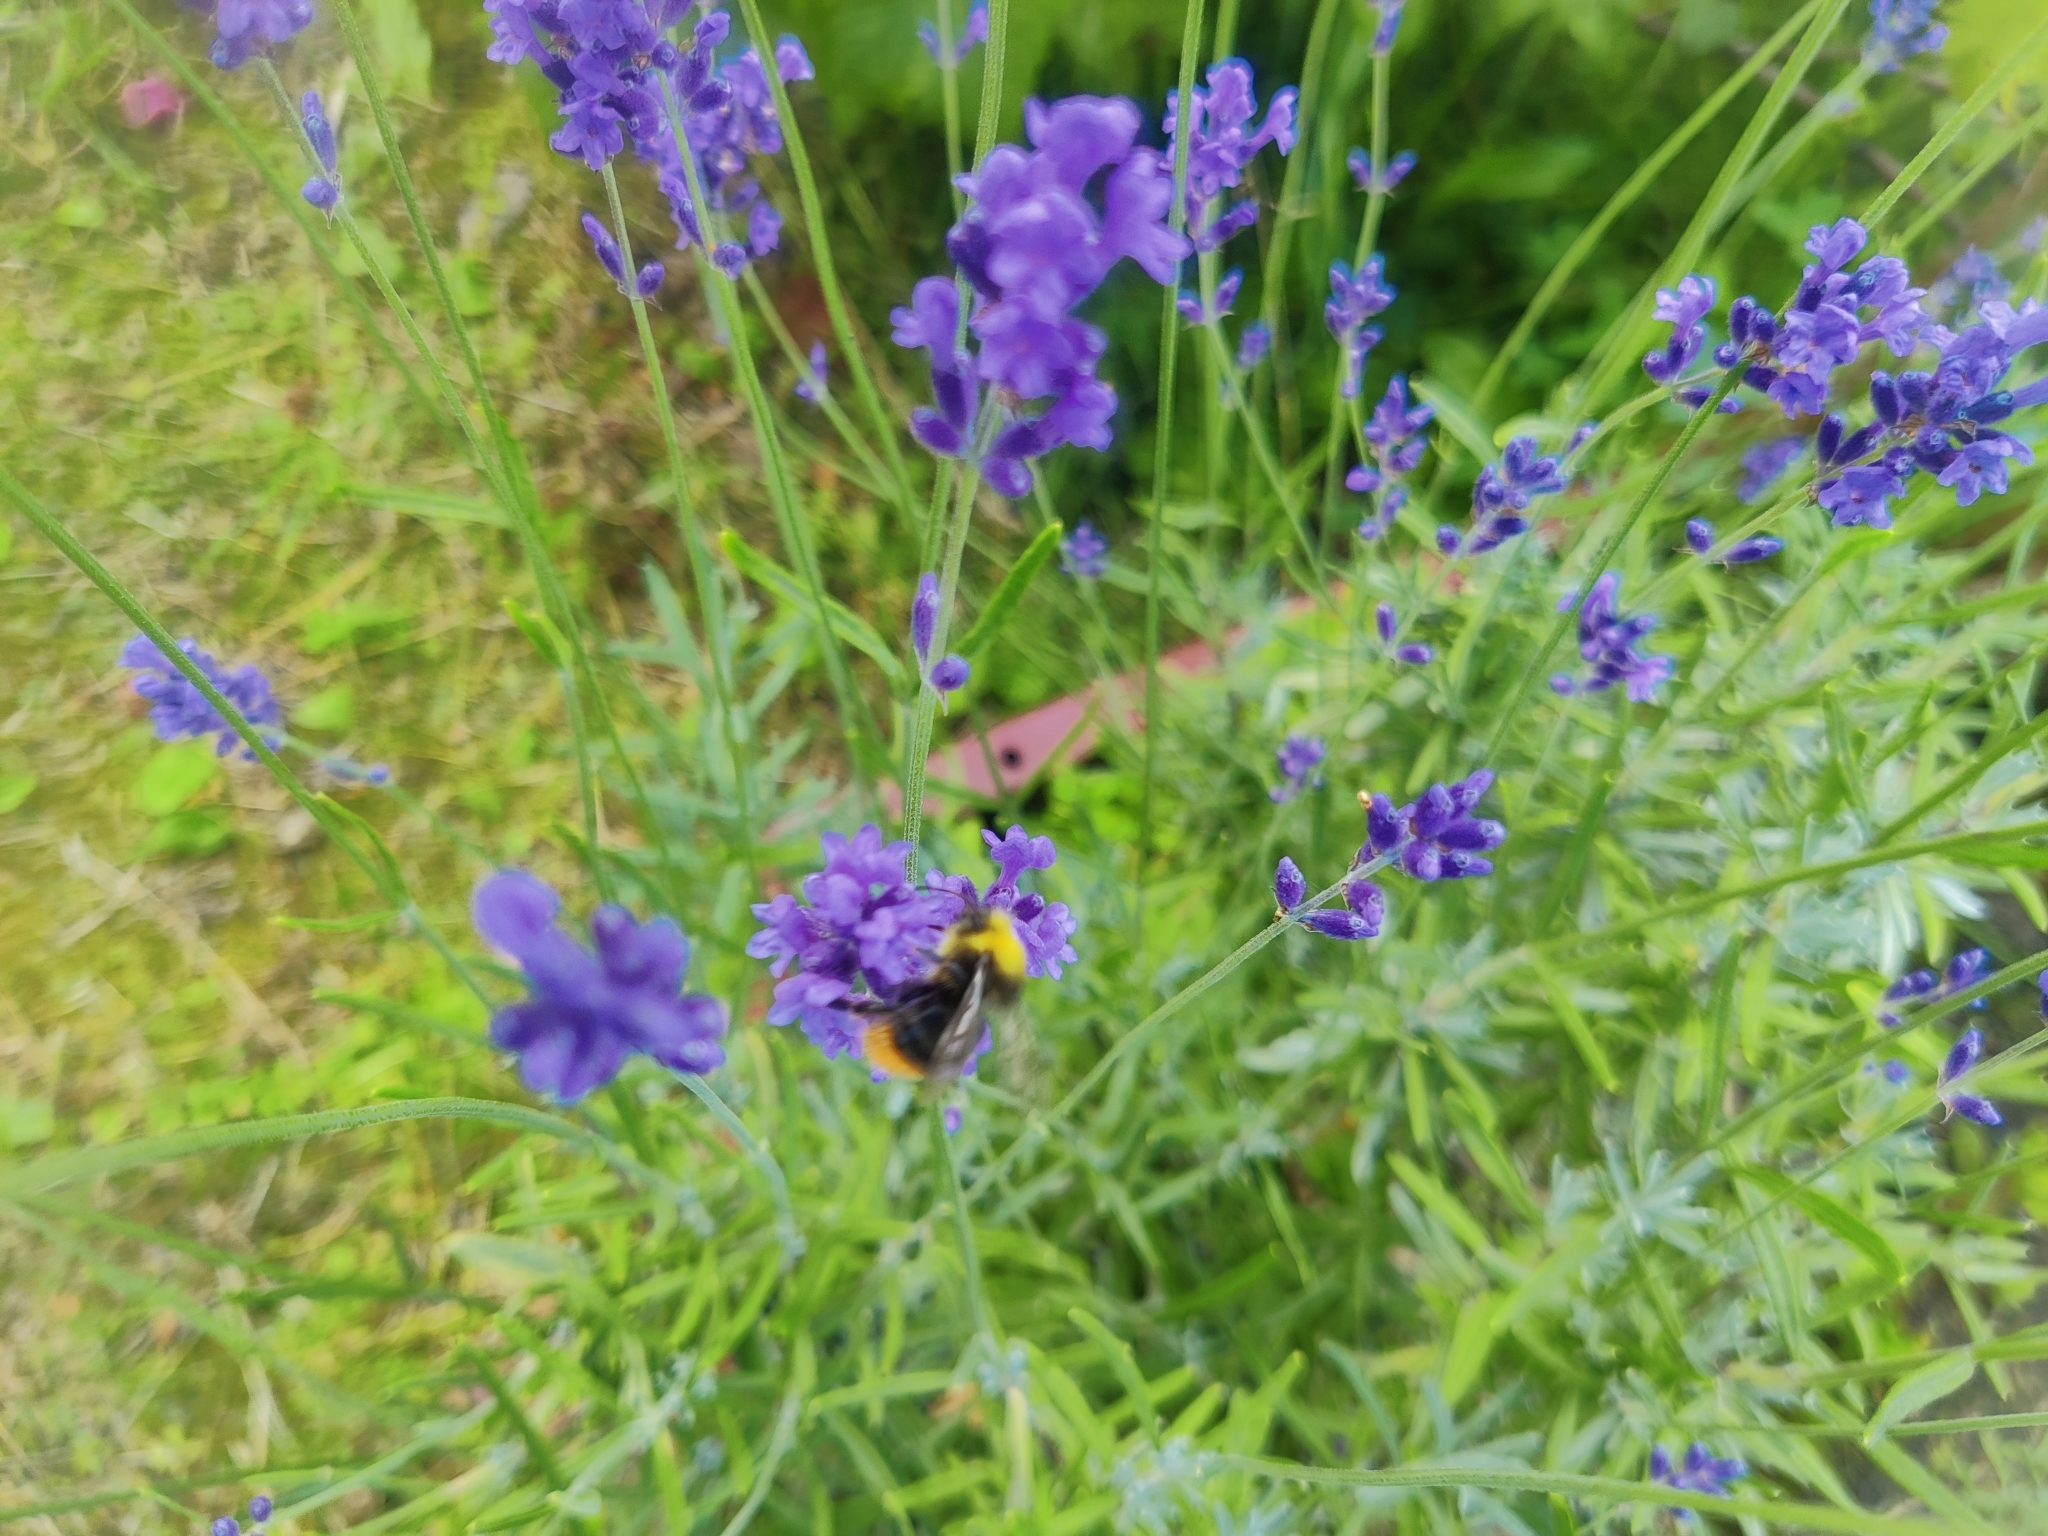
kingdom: Animalia
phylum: Arthropoda
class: Insecta
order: Hymenoptera
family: Apidae
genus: Bombus
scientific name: Bombus pratorum
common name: Early humble-bee
